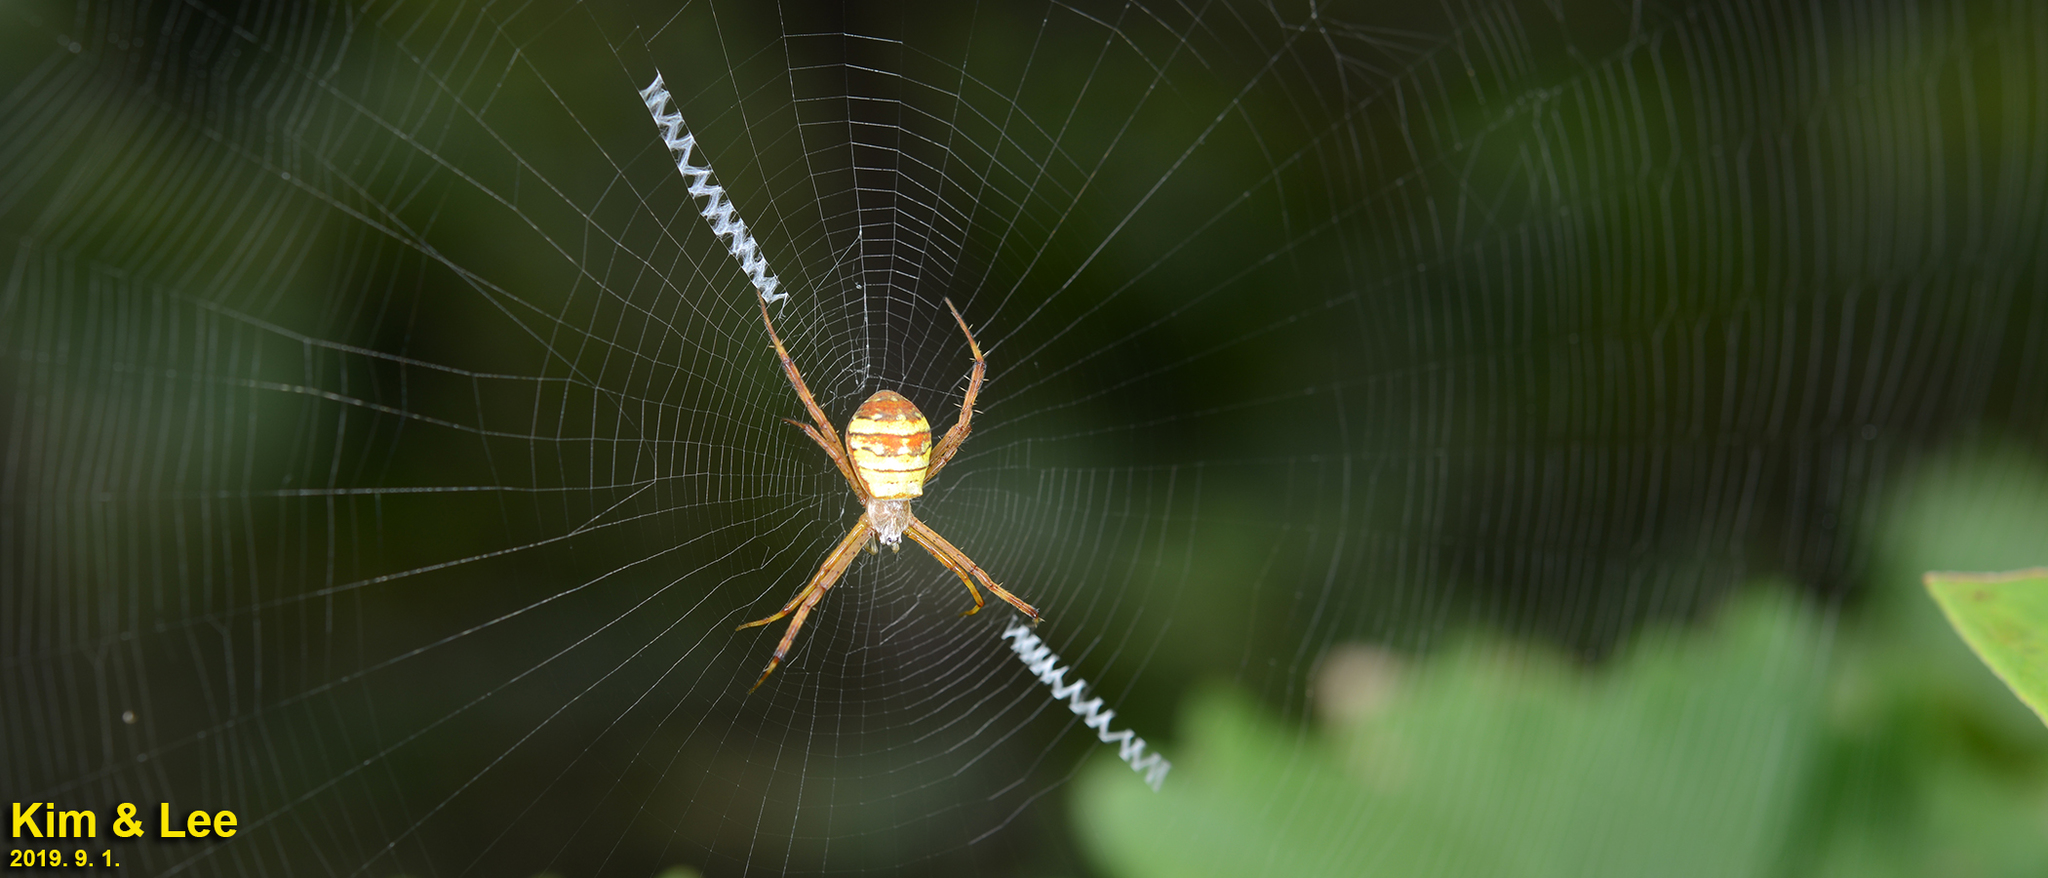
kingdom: Animalia
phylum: Arthropoda
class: Arachnida
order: Araneae
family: Araneidae
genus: Argiope
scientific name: Argiope minuta
